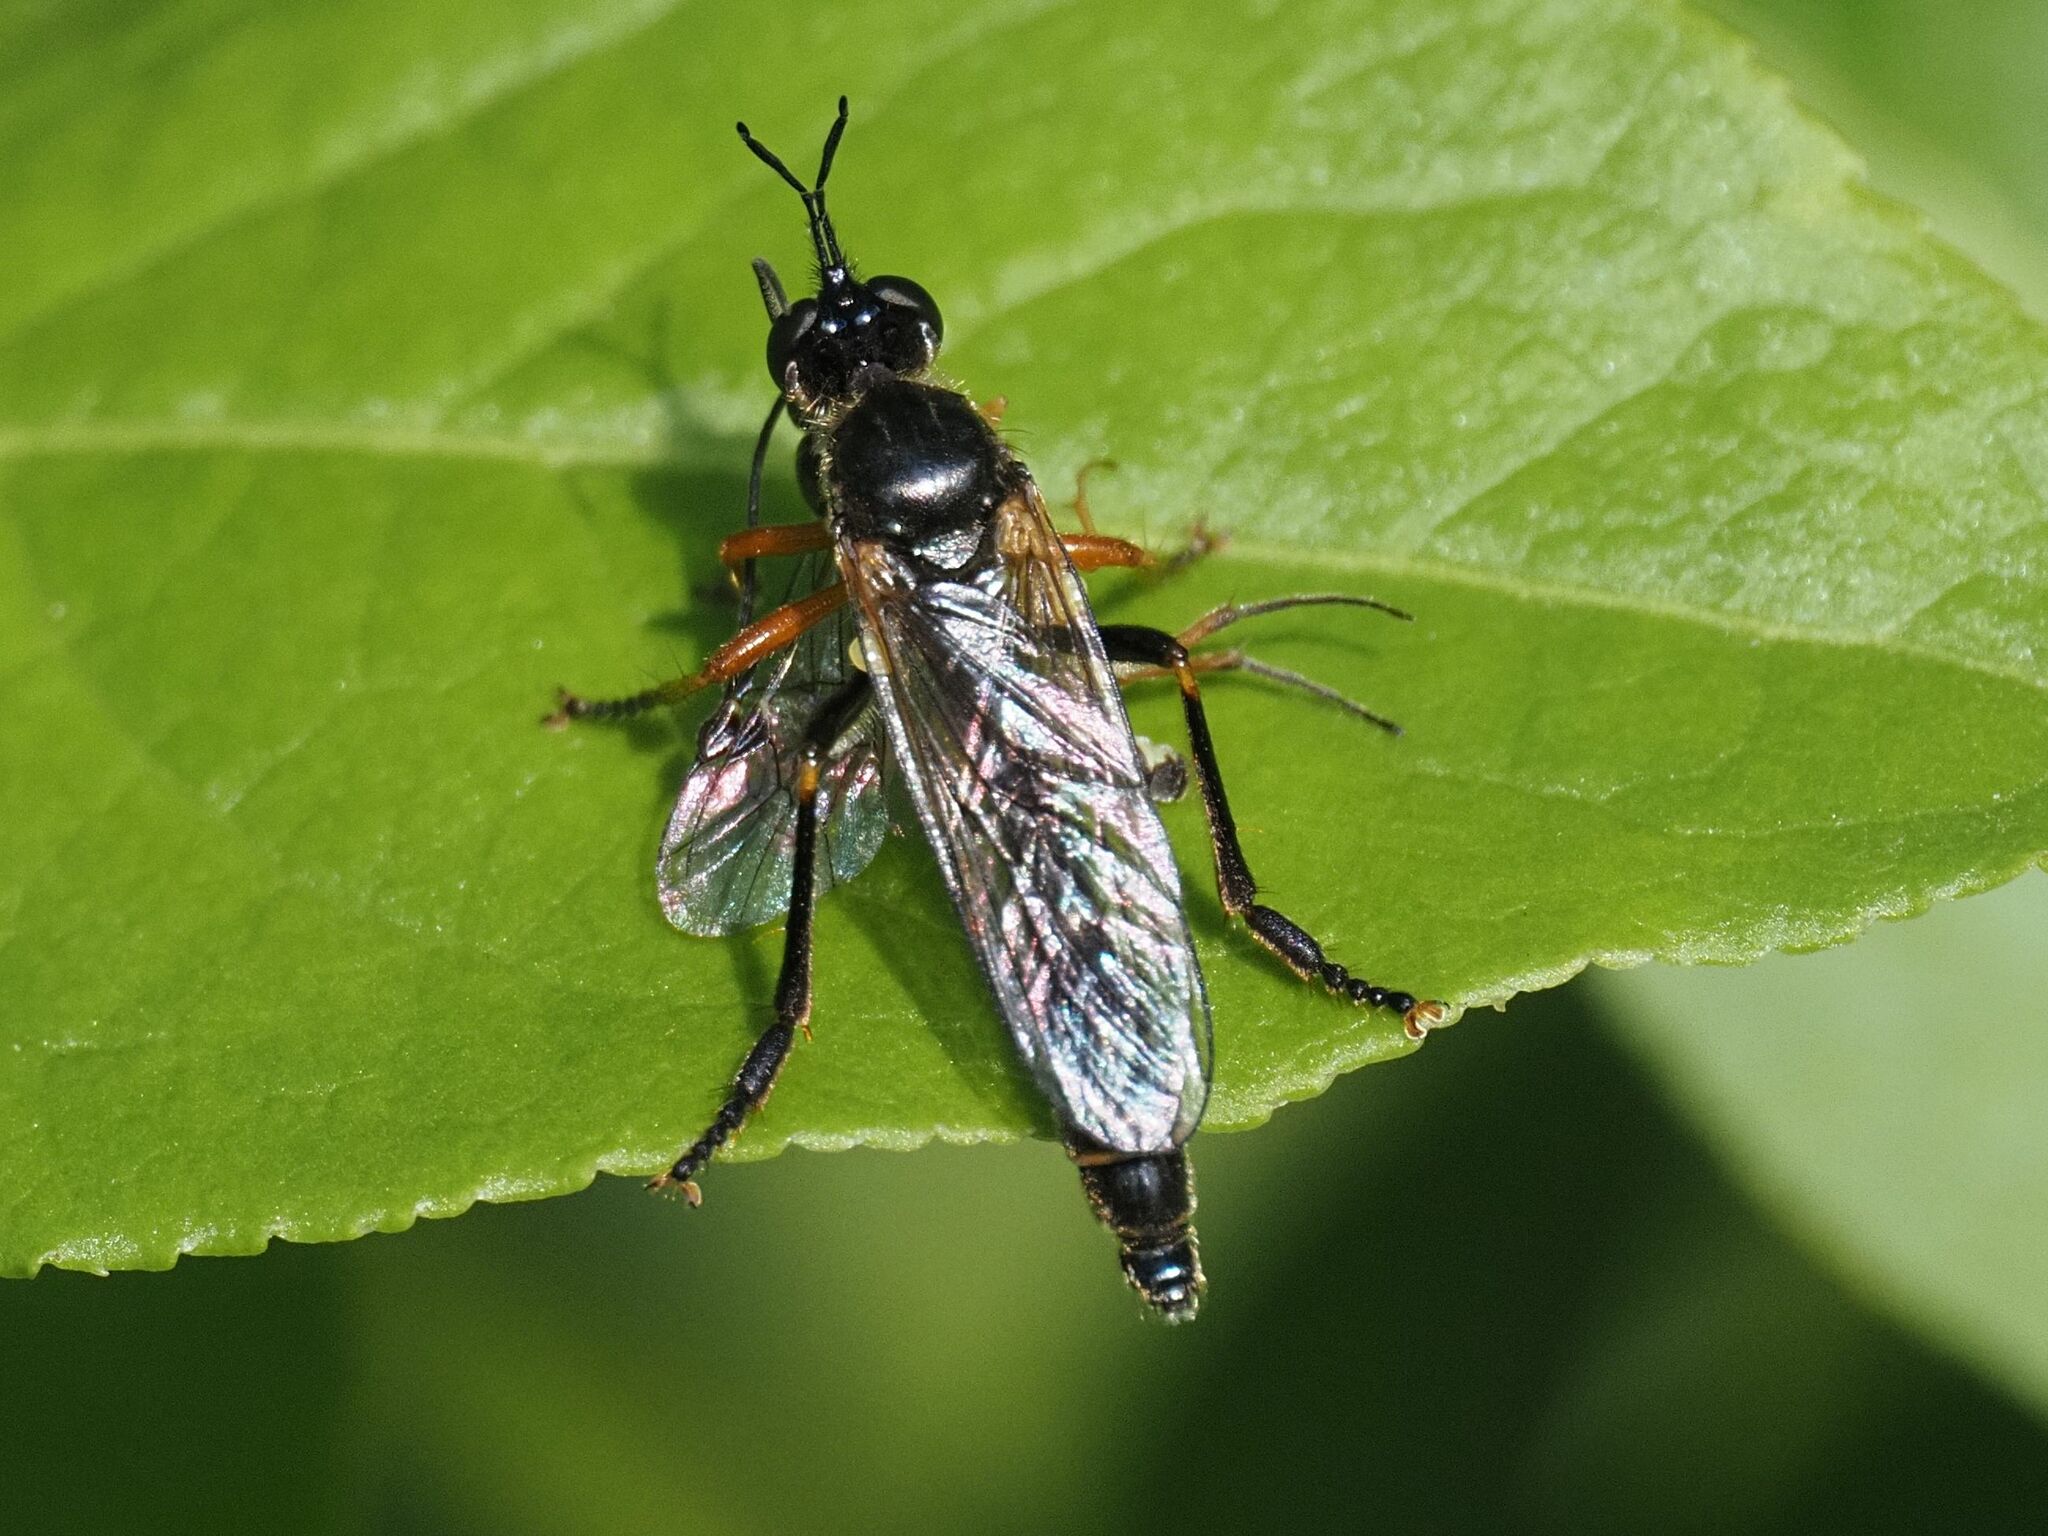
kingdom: Animalia
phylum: Arthropoda
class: Insecta
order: Diptera
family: Asilidae
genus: Dioctria
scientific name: Dioctria rufipes
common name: Common red-legged robberfly
